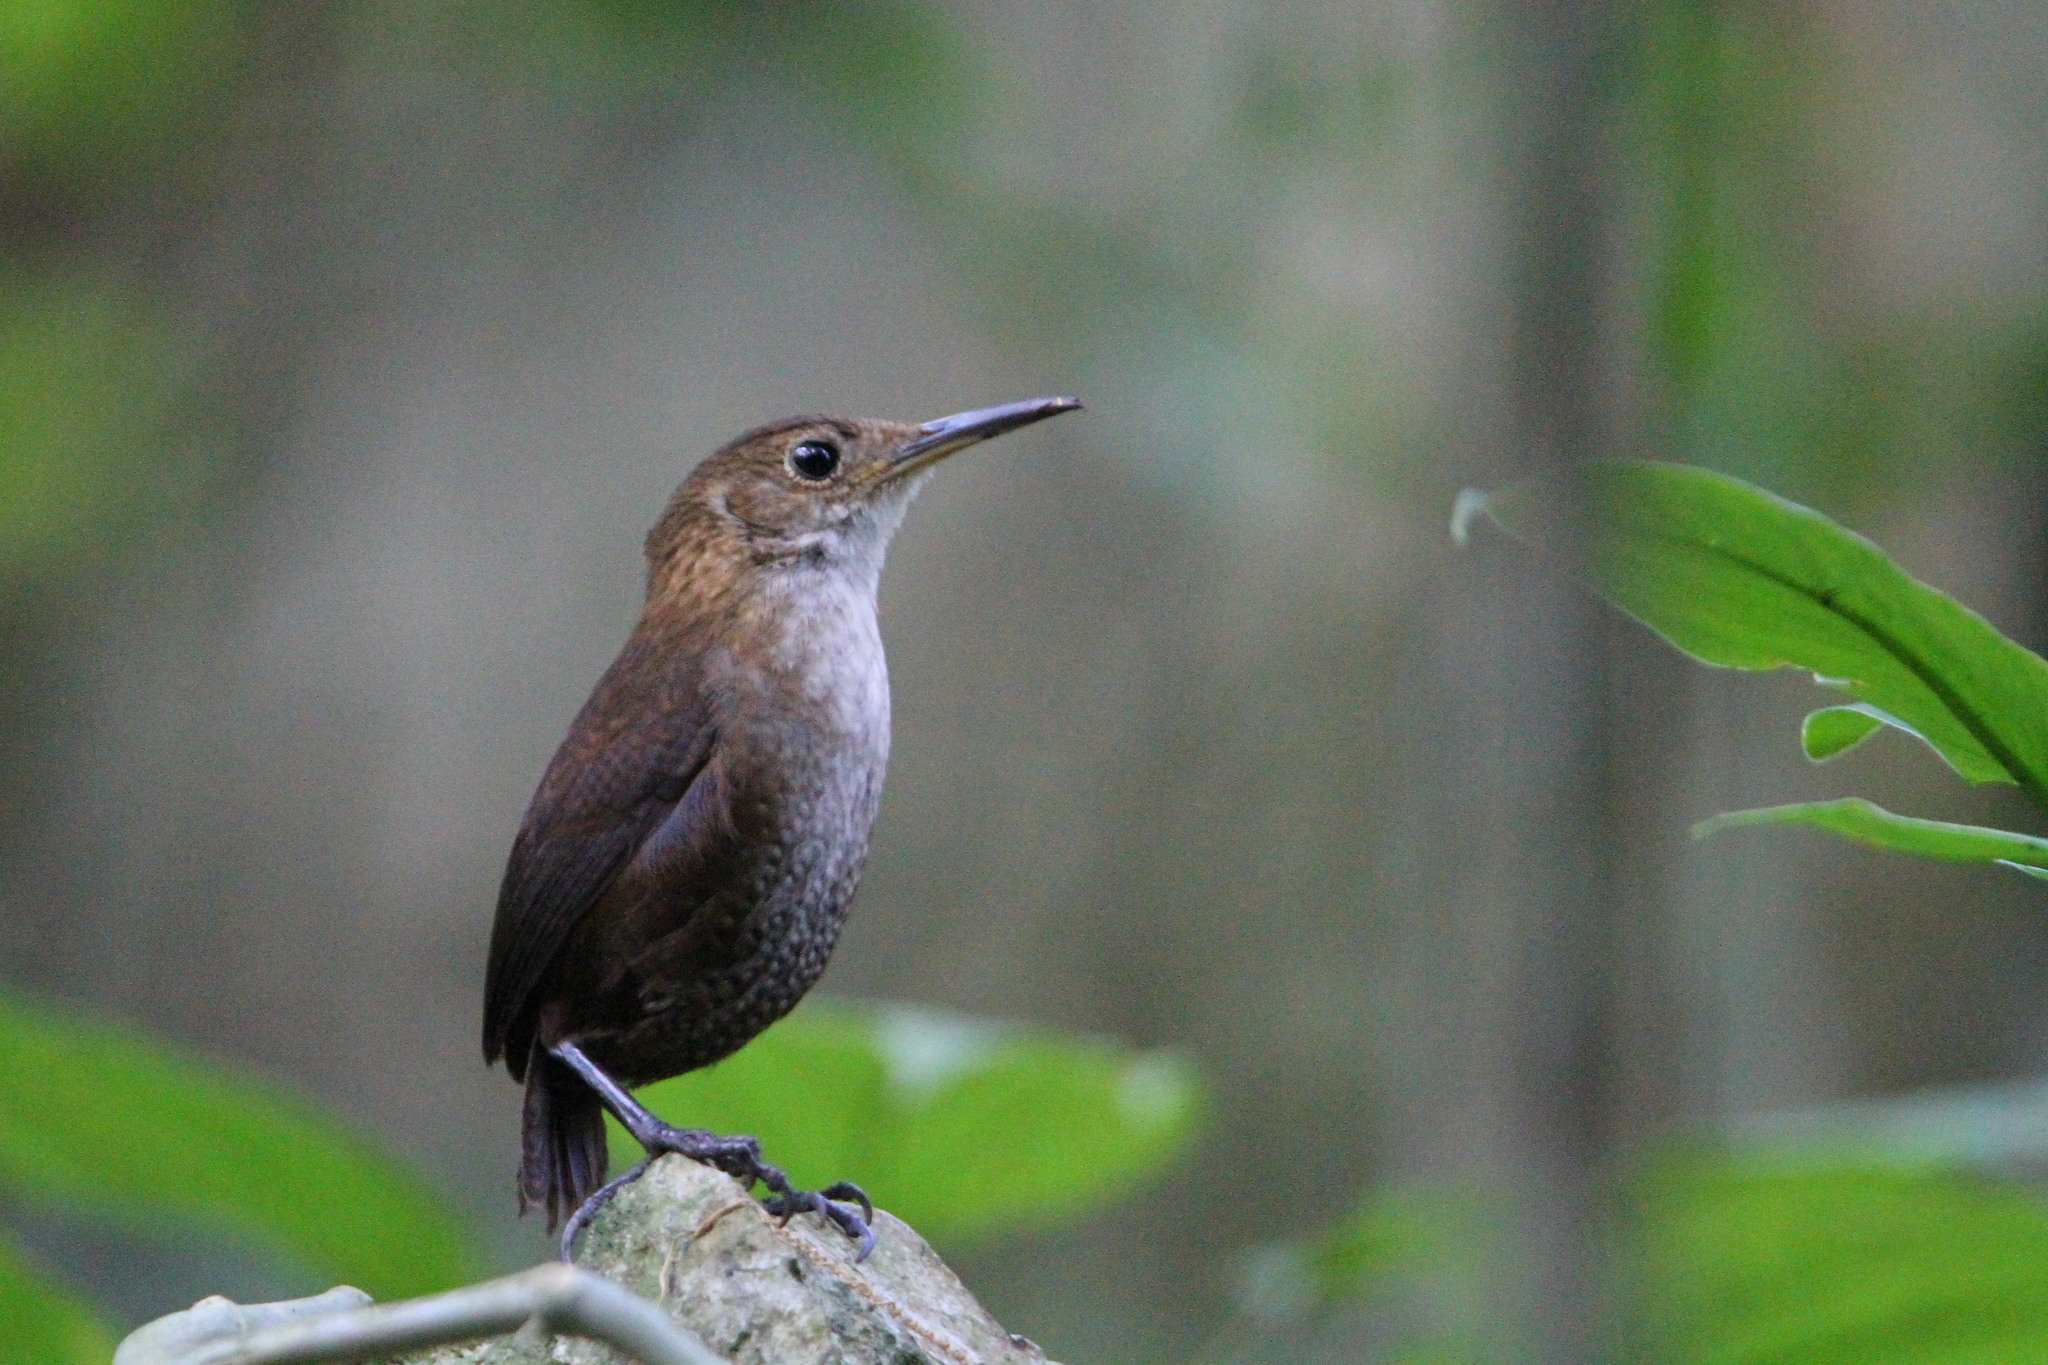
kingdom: Animalia
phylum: Chordata
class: Aves
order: Passeriformes
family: Troglodytidae
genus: Hylorchilus
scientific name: Hylorchilus navai
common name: Nava's wren
